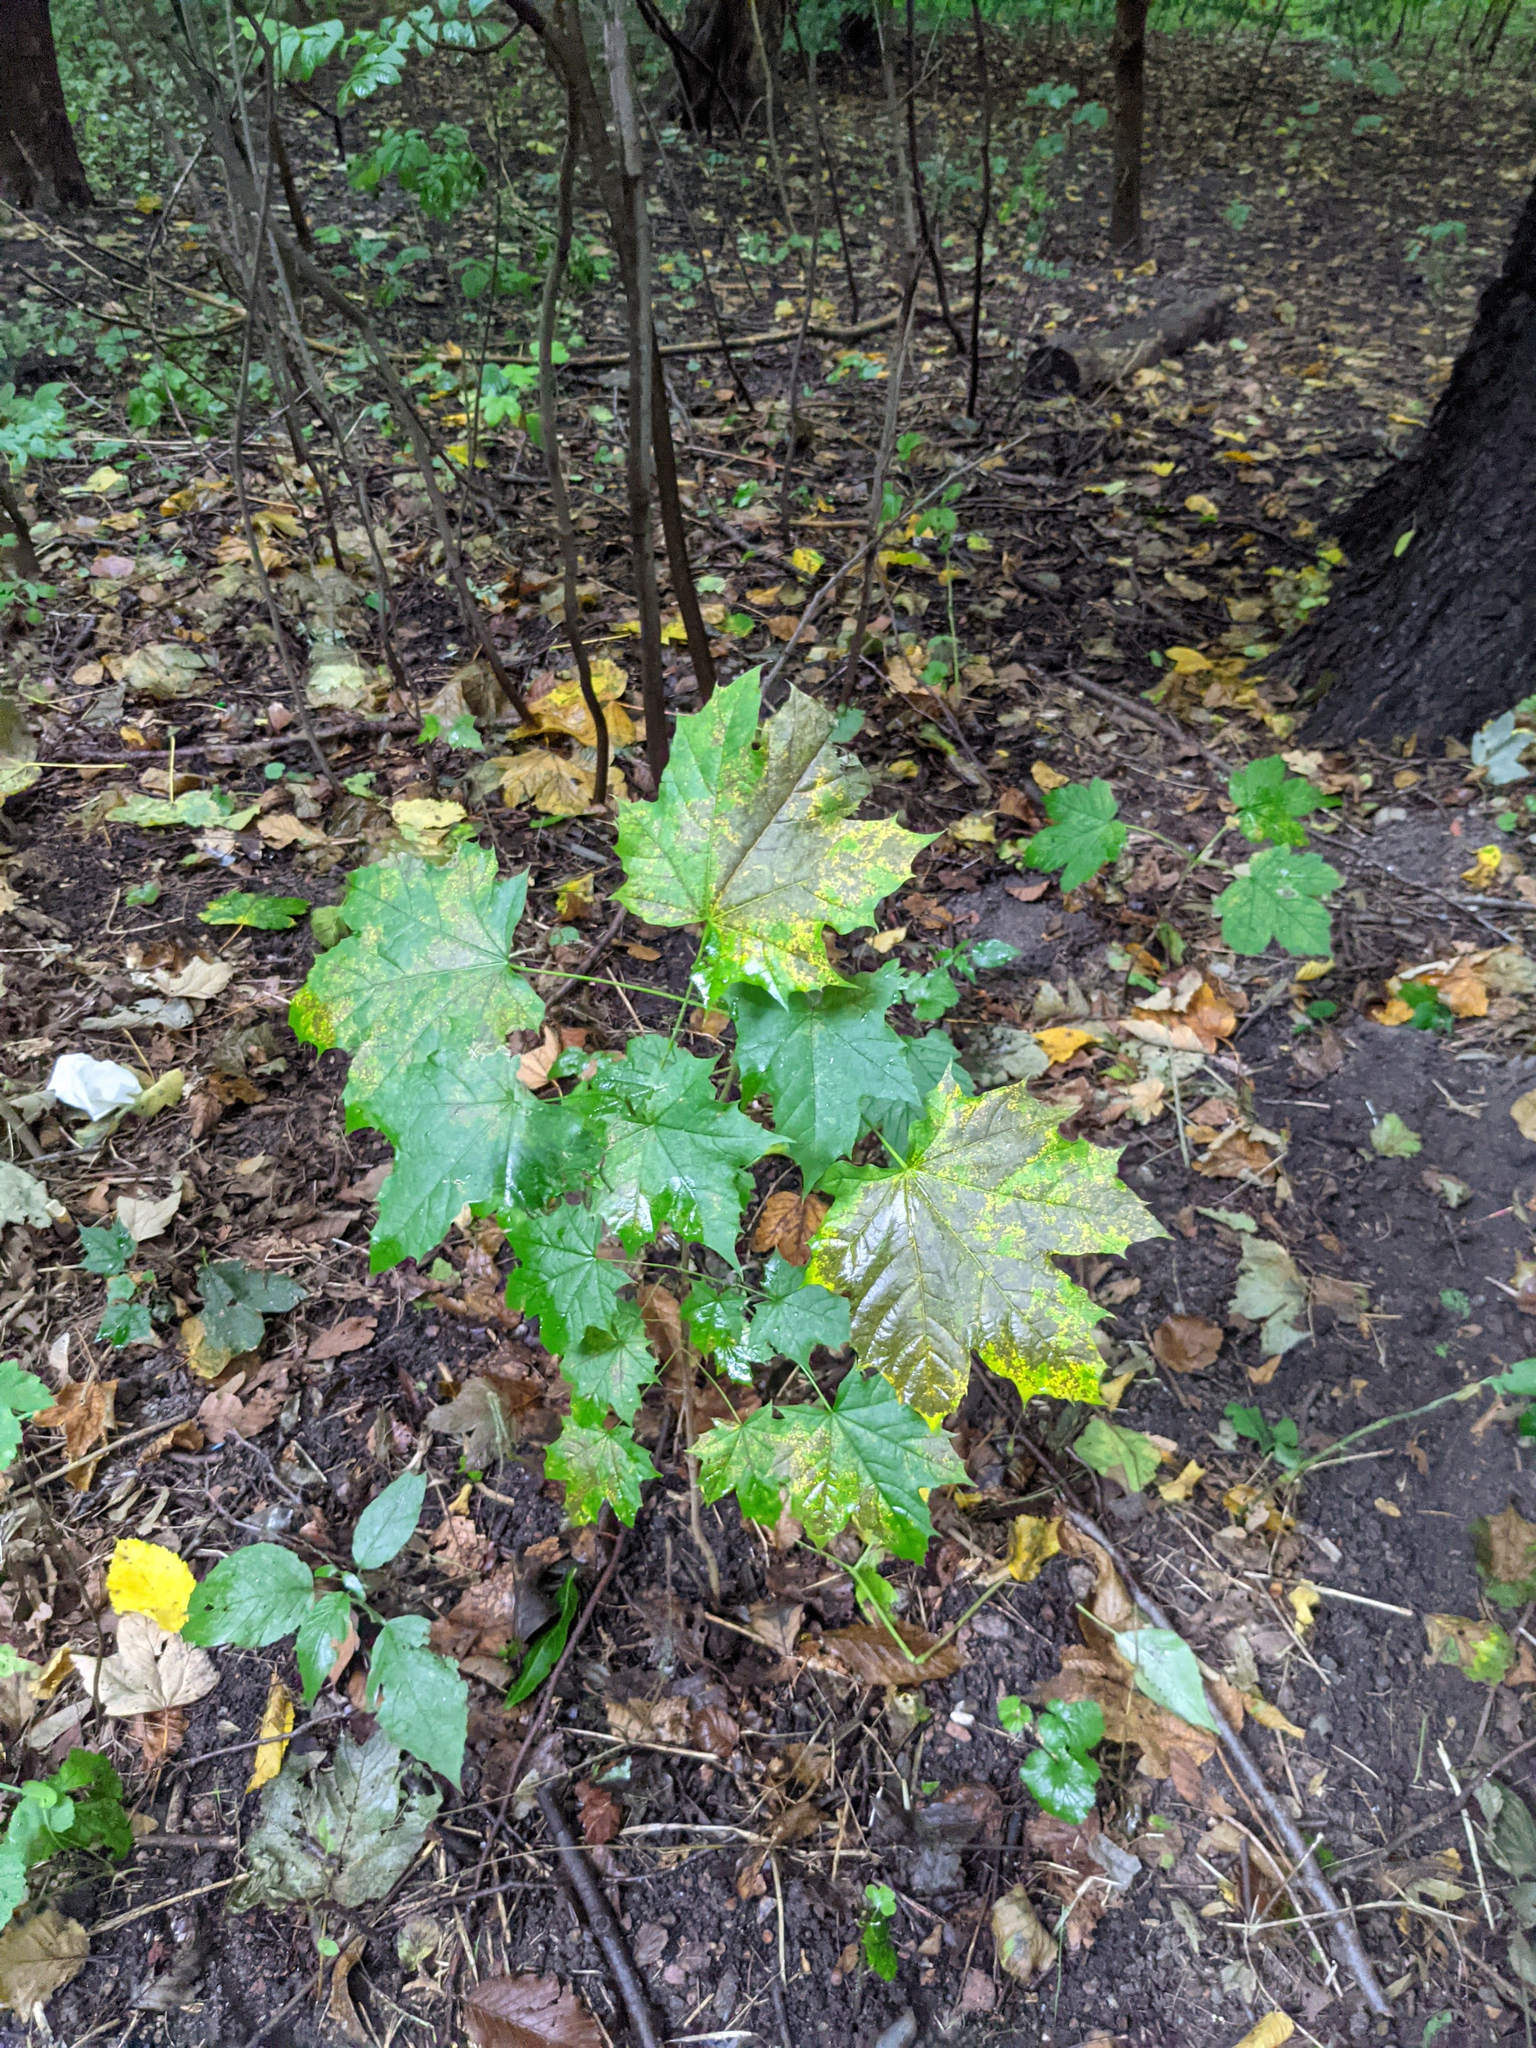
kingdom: Plantae
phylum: Tracheophyta
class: Magnoliopsida
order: Sapindales
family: Sapindaceae
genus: Acer
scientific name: Acer platanoides
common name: Norway maple
